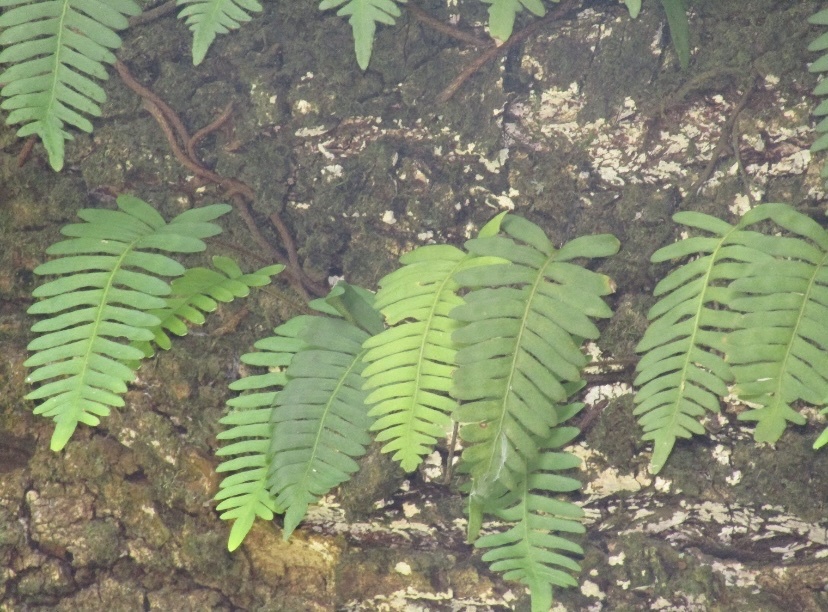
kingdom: Plantae
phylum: Tracheophyta
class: Polypodiopsida
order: Polypodiales
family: Polypodiaceae
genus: Pleopeltis
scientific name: Pleopeltis ecklonii
